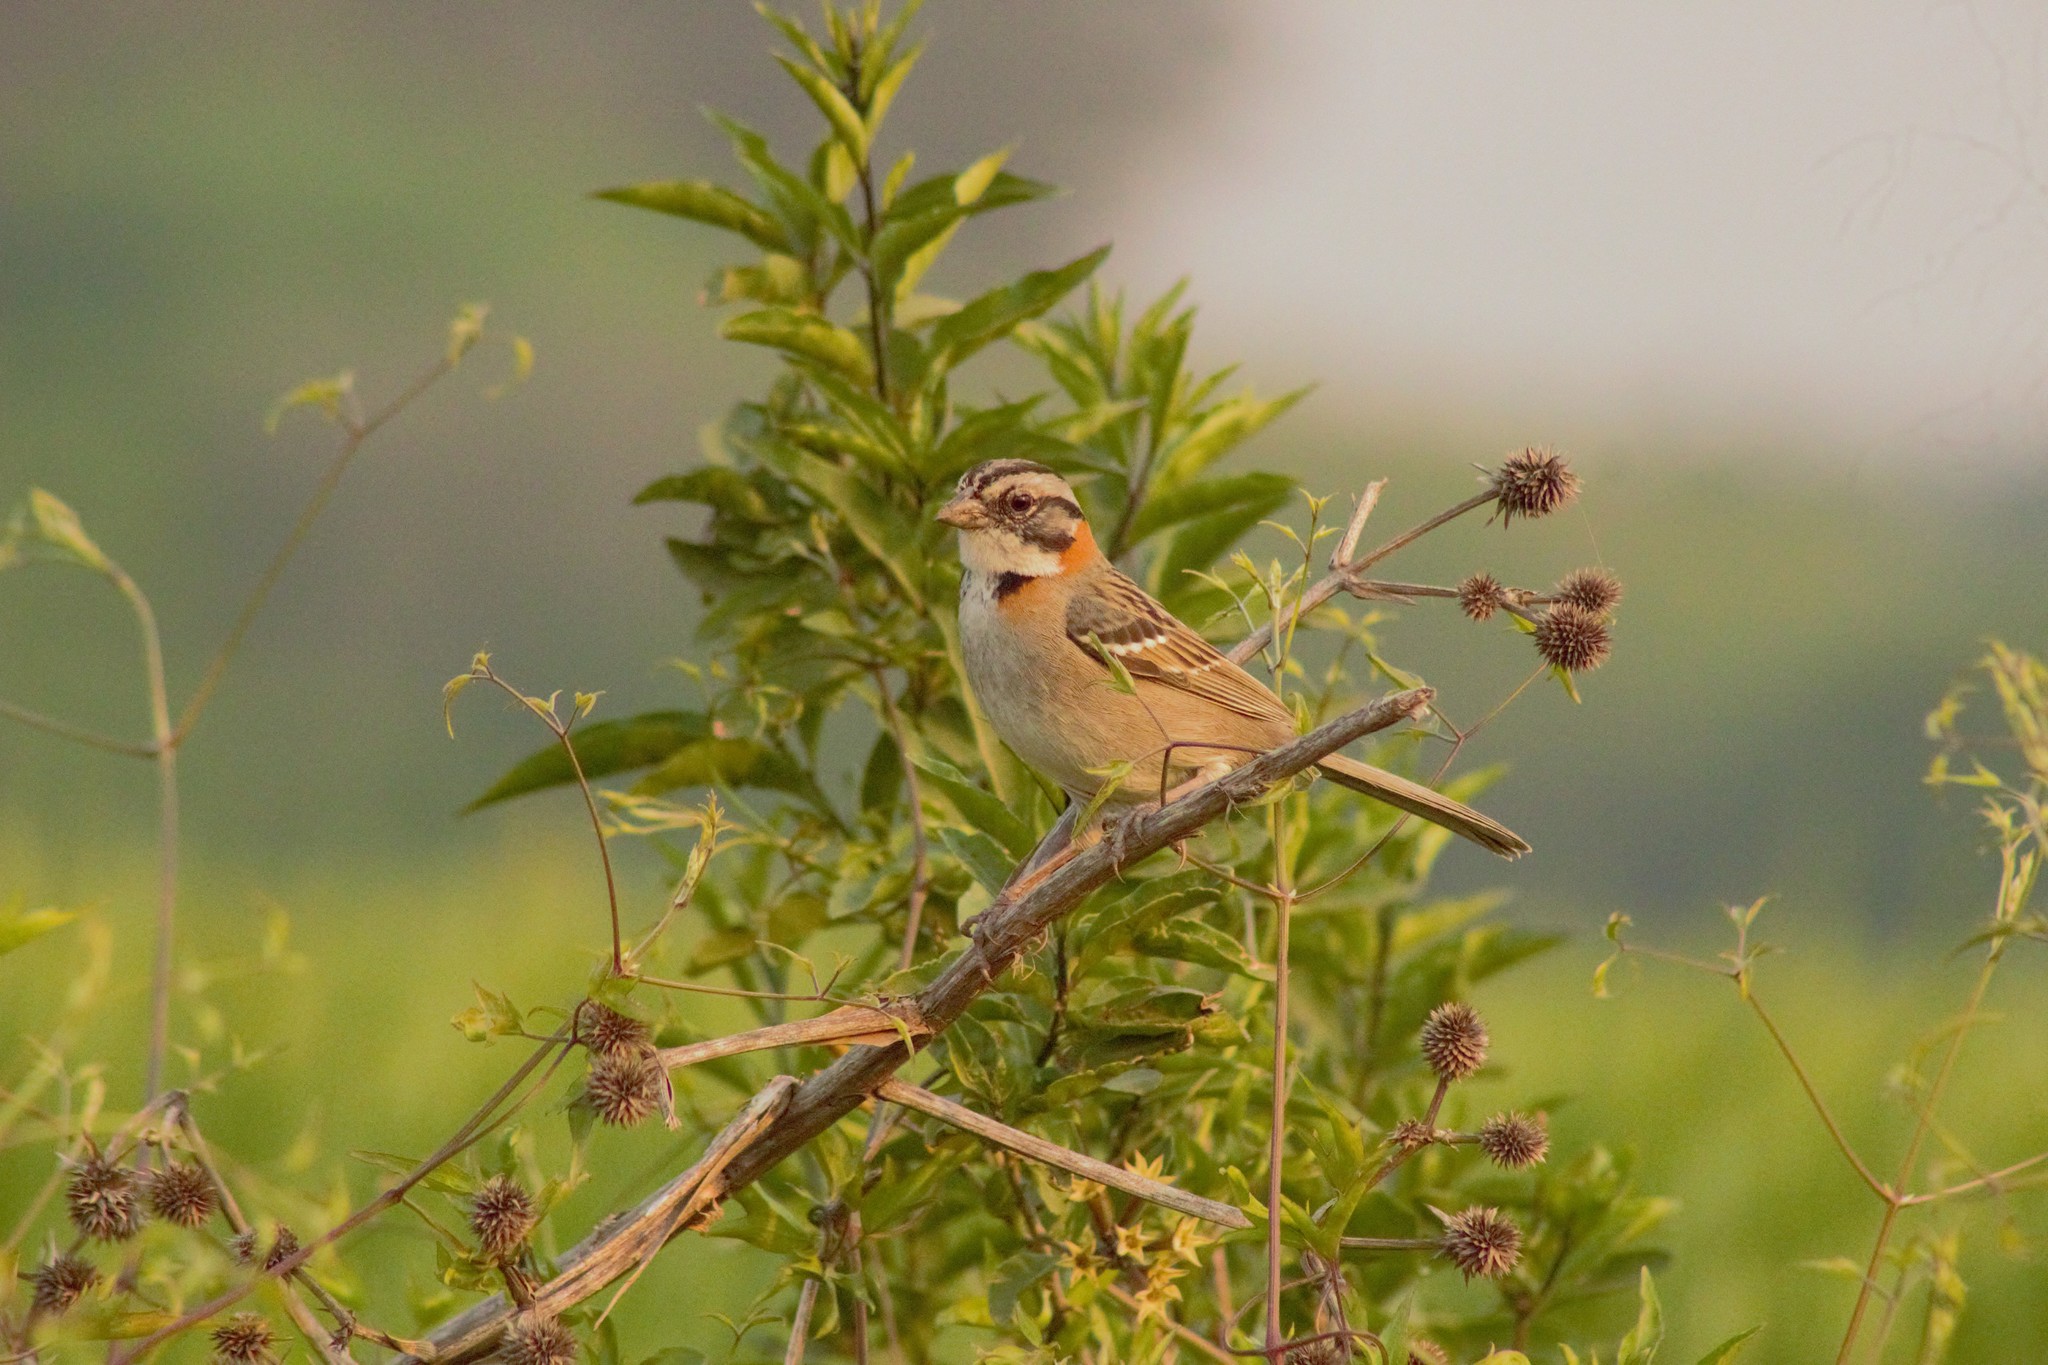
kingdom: Animalia
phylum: Chordata
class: Aves
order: Passeriformes
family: Passerellidae
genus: Zonotrichia
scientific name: Zonotrichia capensis
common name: Rufous-collared sparrow
